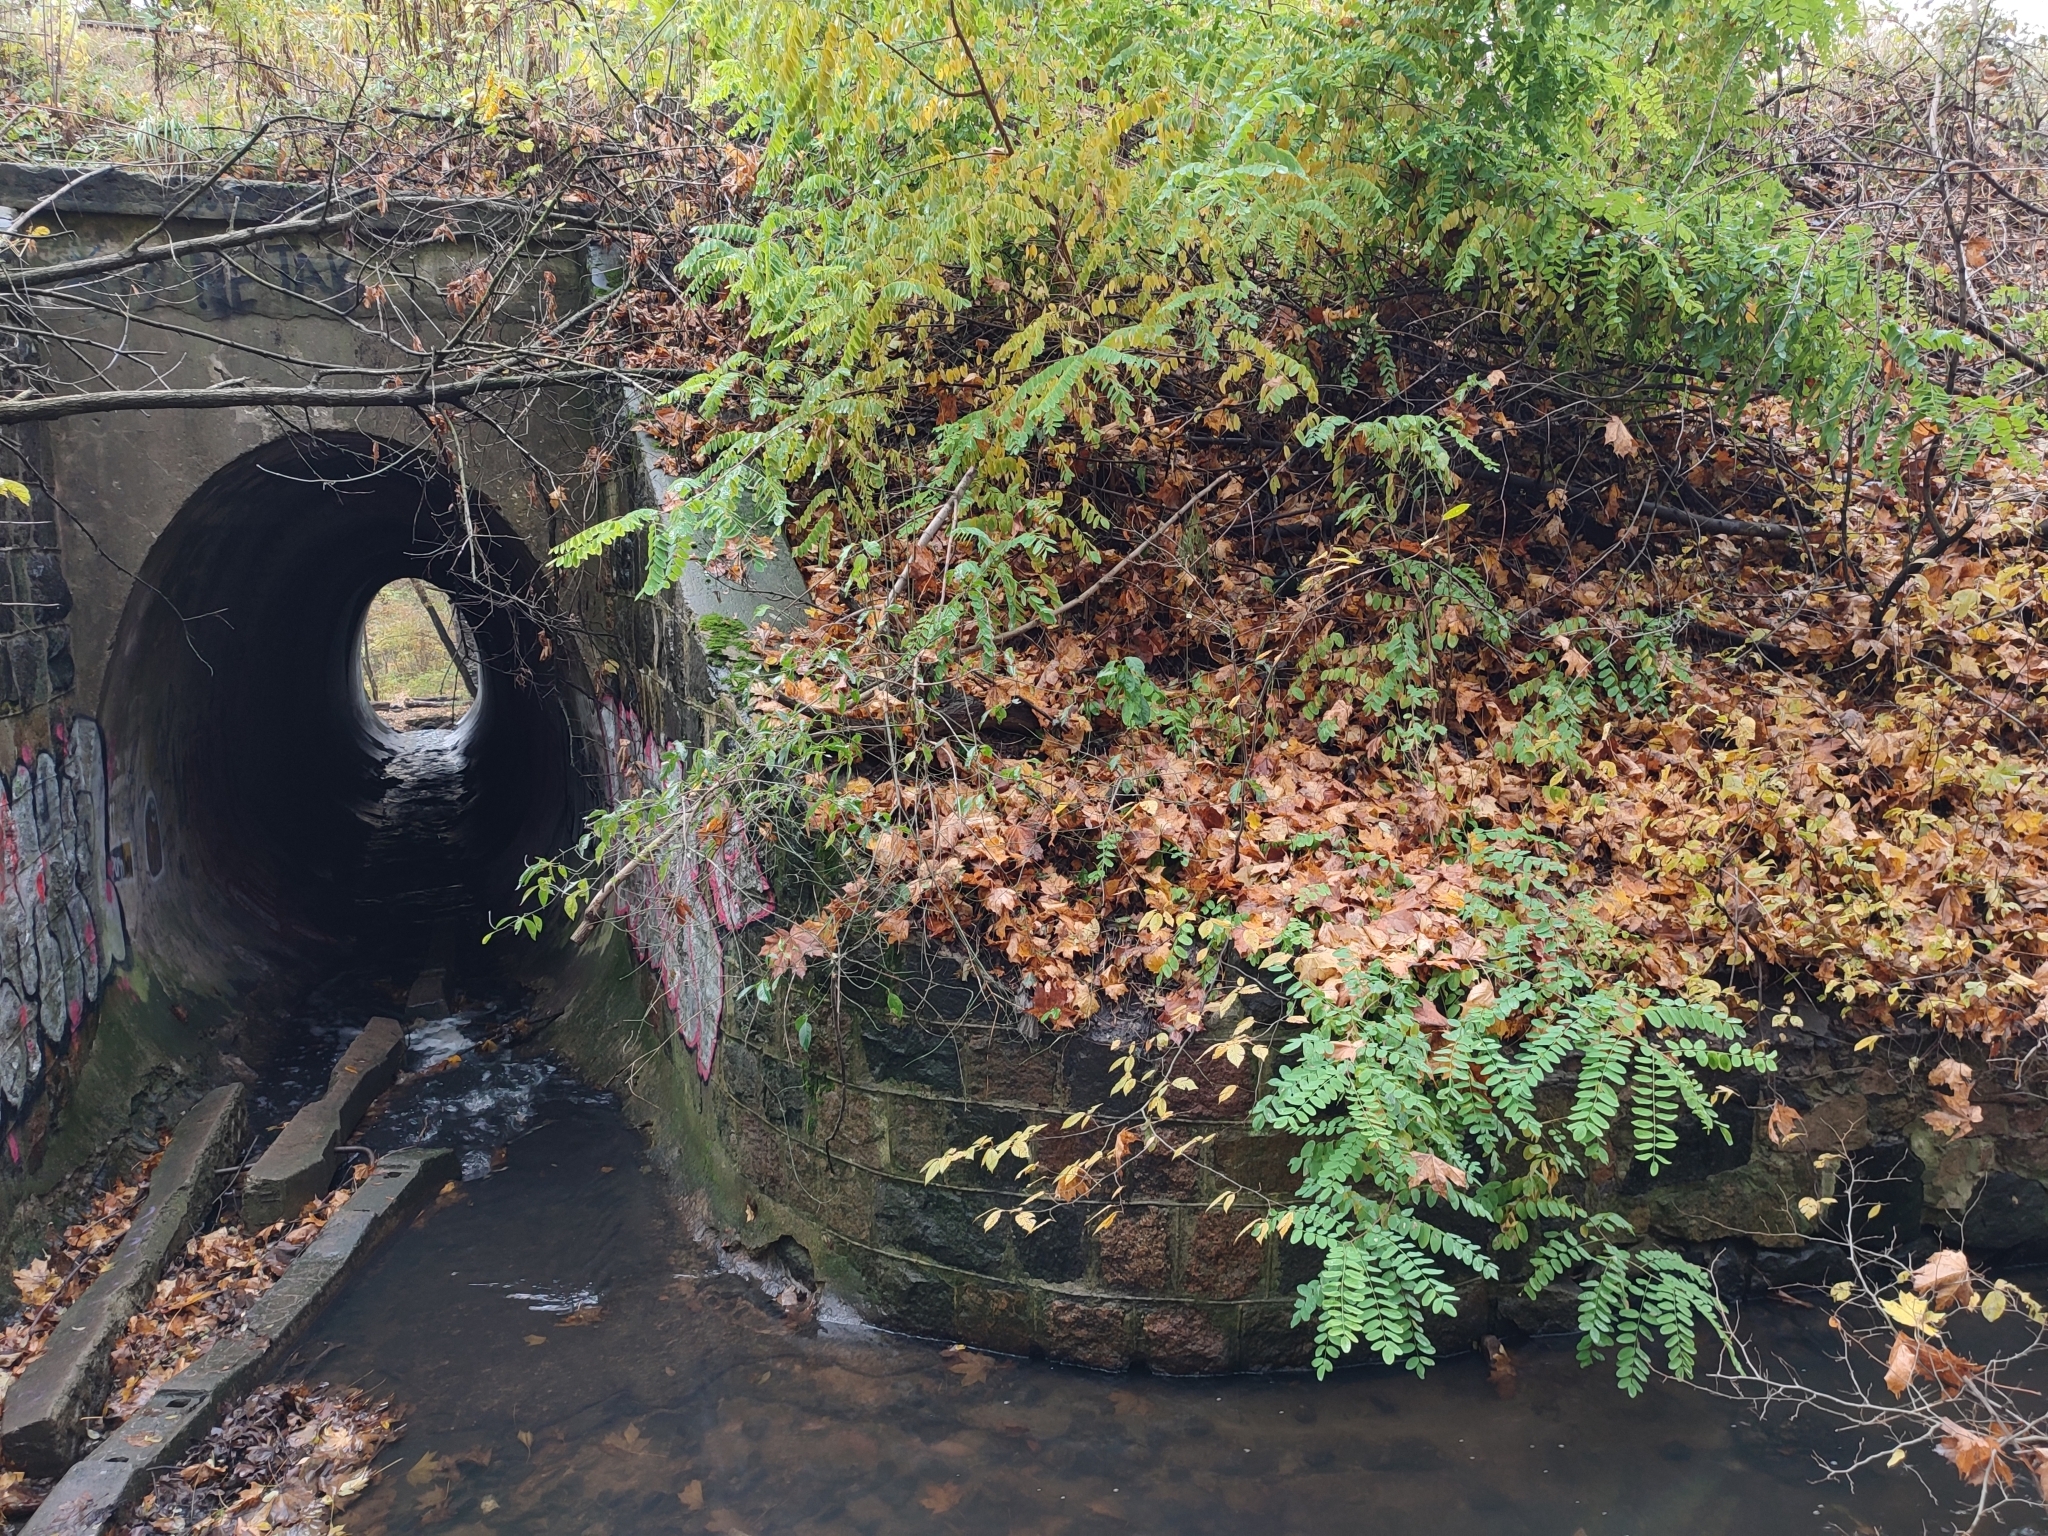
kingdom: Plantae
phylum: Tracheophyta
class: Magnoliopsida
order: Fabales
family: Fabaceae
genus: Robinia
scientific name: Robinia pseudoacacia
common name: Black locust
